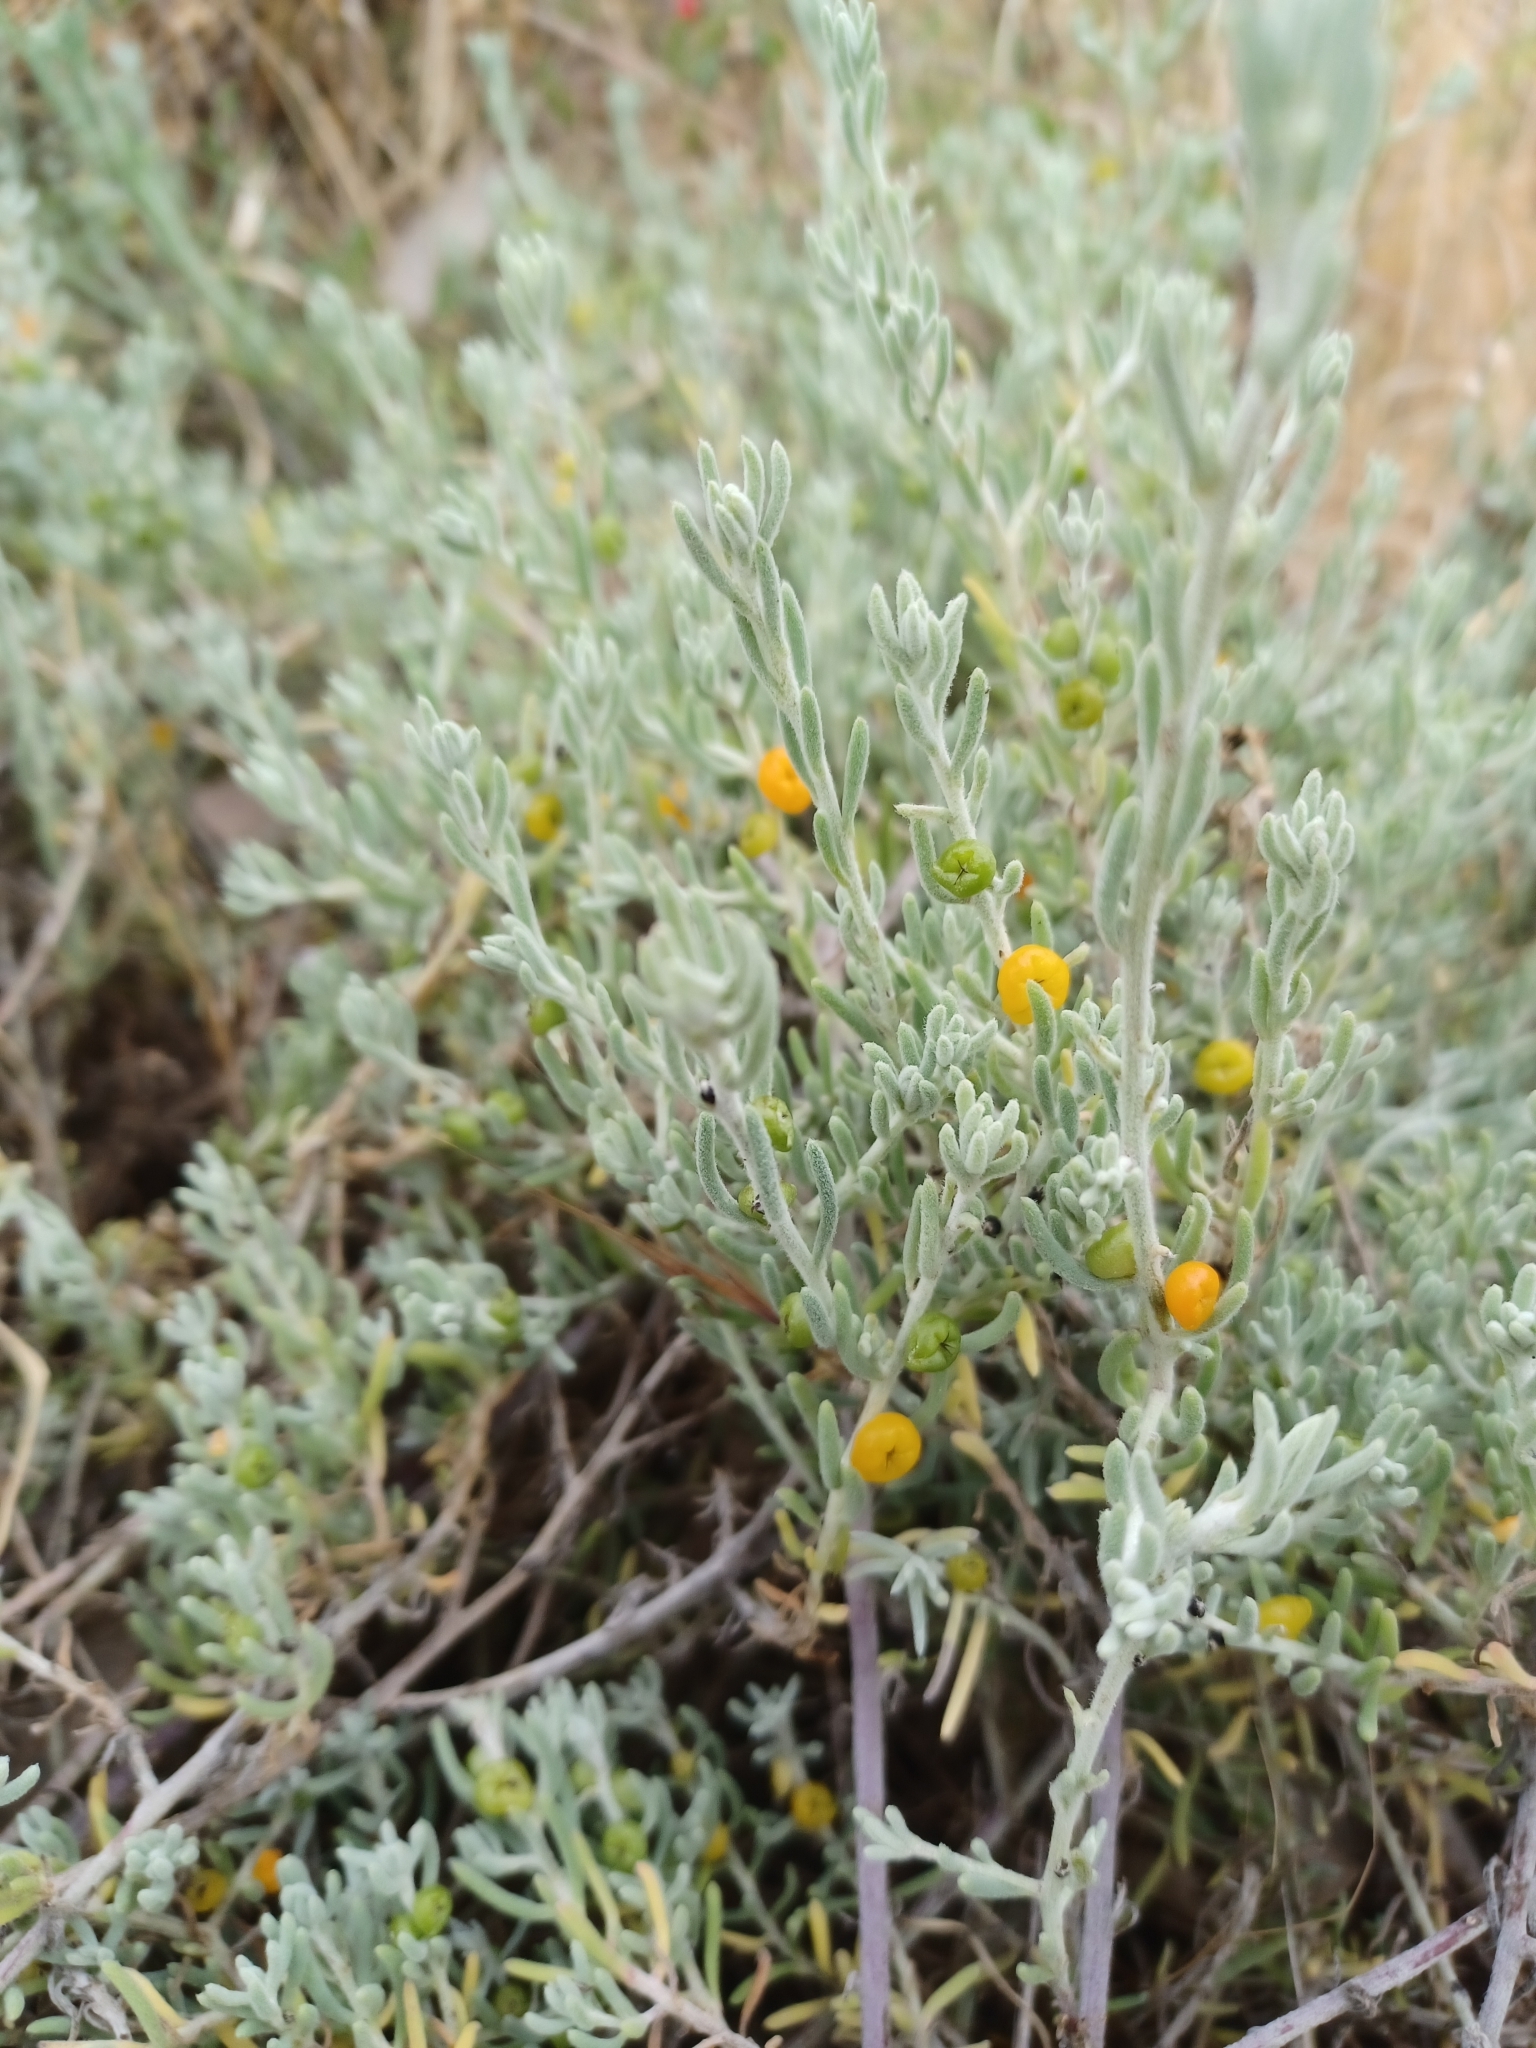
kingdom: Plantae
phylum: Tracheophyta
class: Magnoliopsida
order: Caryophyllales
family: Amaranthaceae
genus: Enchylaena
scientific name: Enchylaena tomentosa
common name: Ruby saltbush
